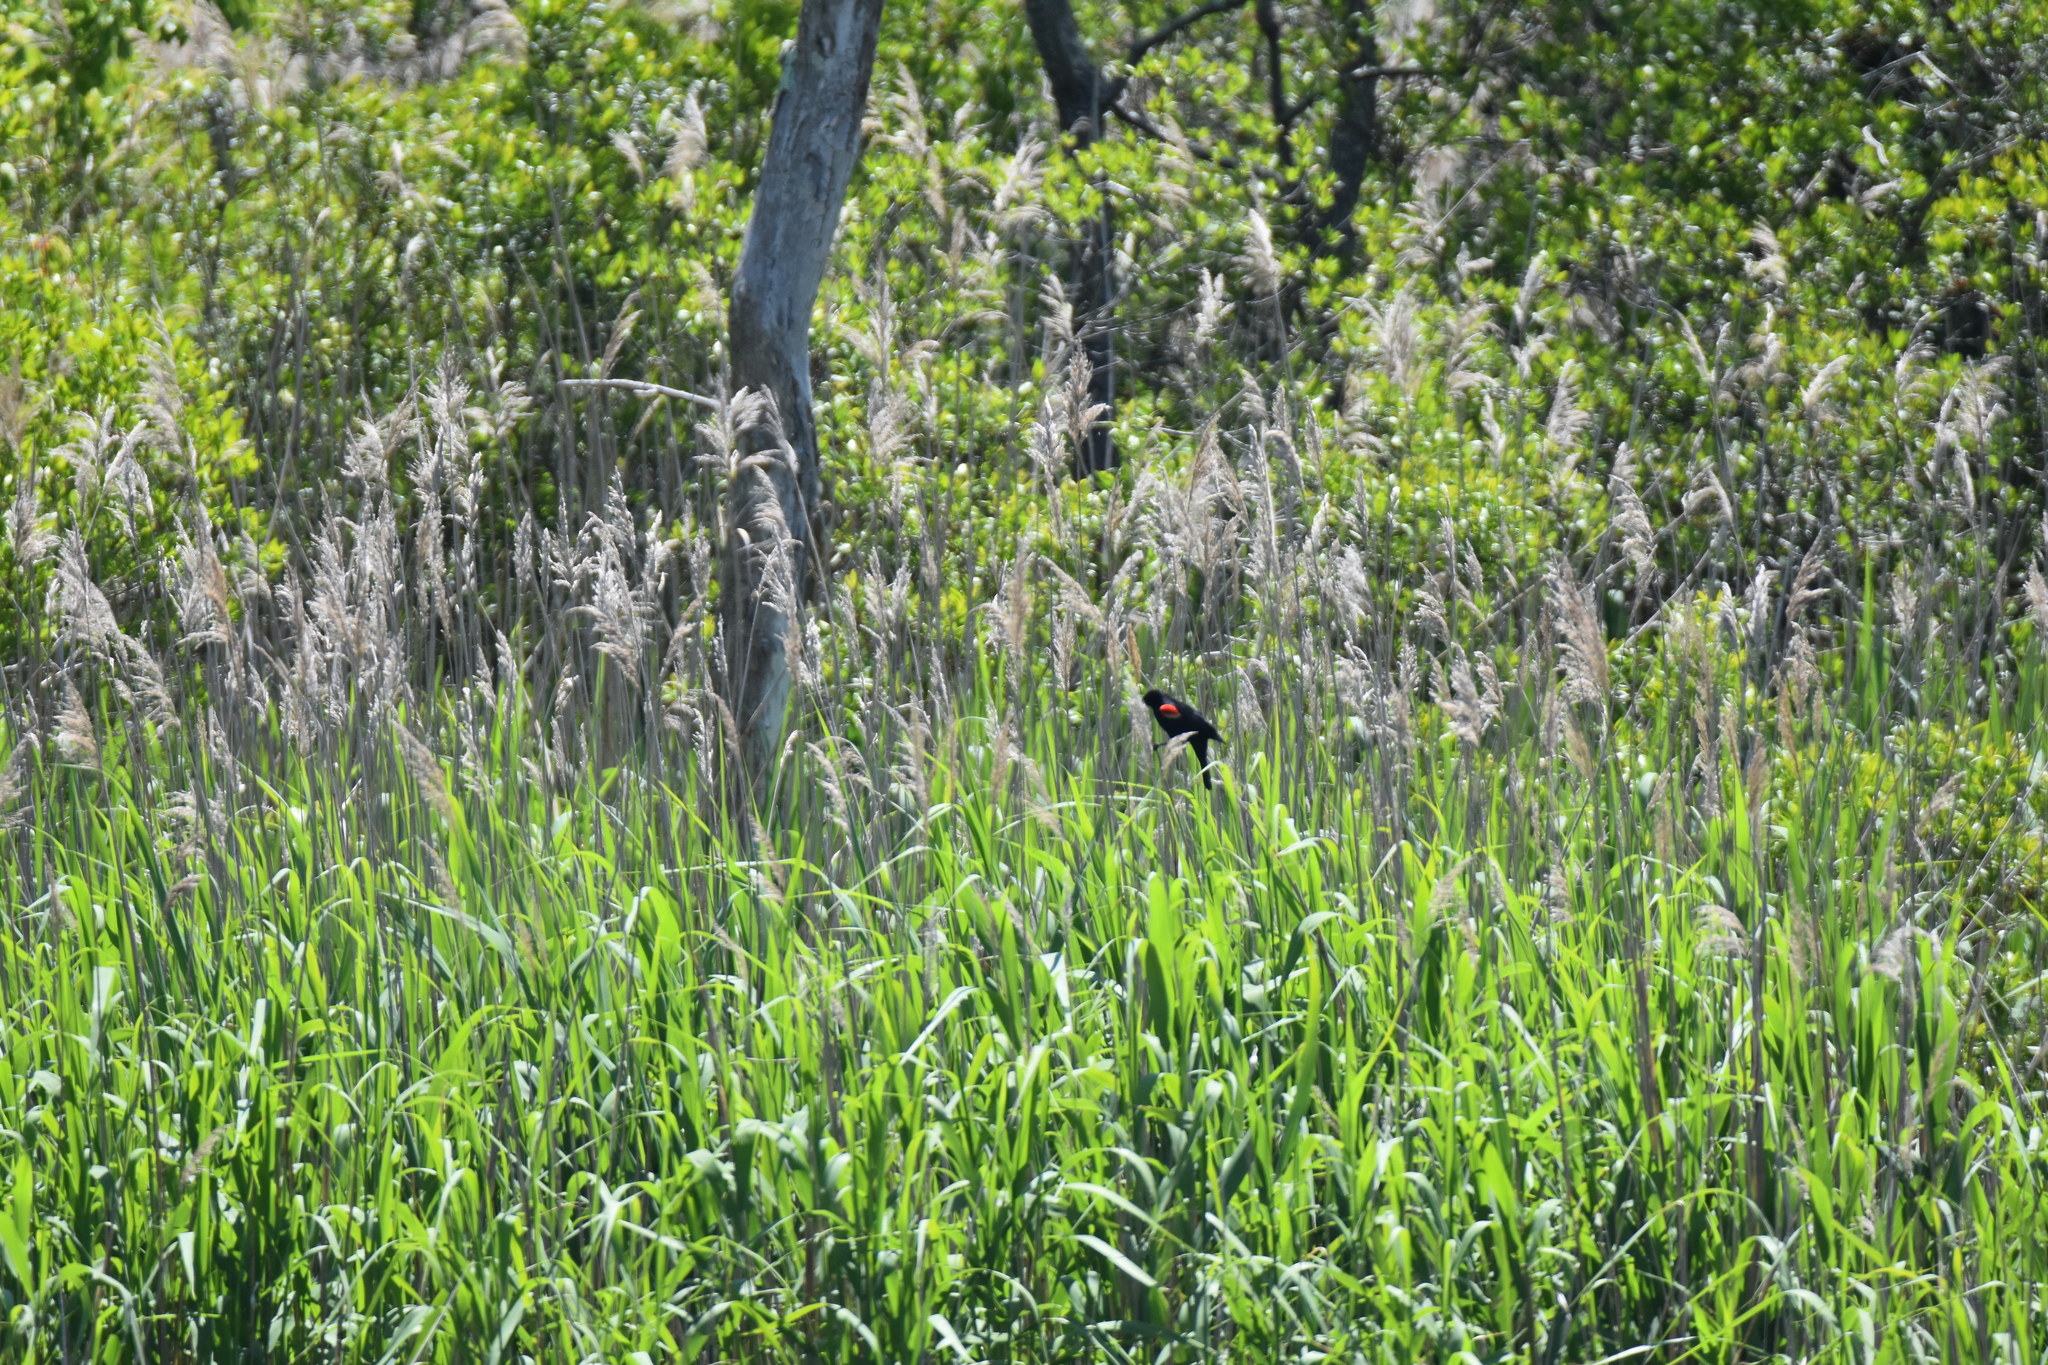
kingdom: Animalia
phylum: Chordata
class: Aves
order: Passeriformes
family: Icteridae
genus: Agelaius
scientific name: Agelaius phoeniceus
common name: Red-winged blackbird
